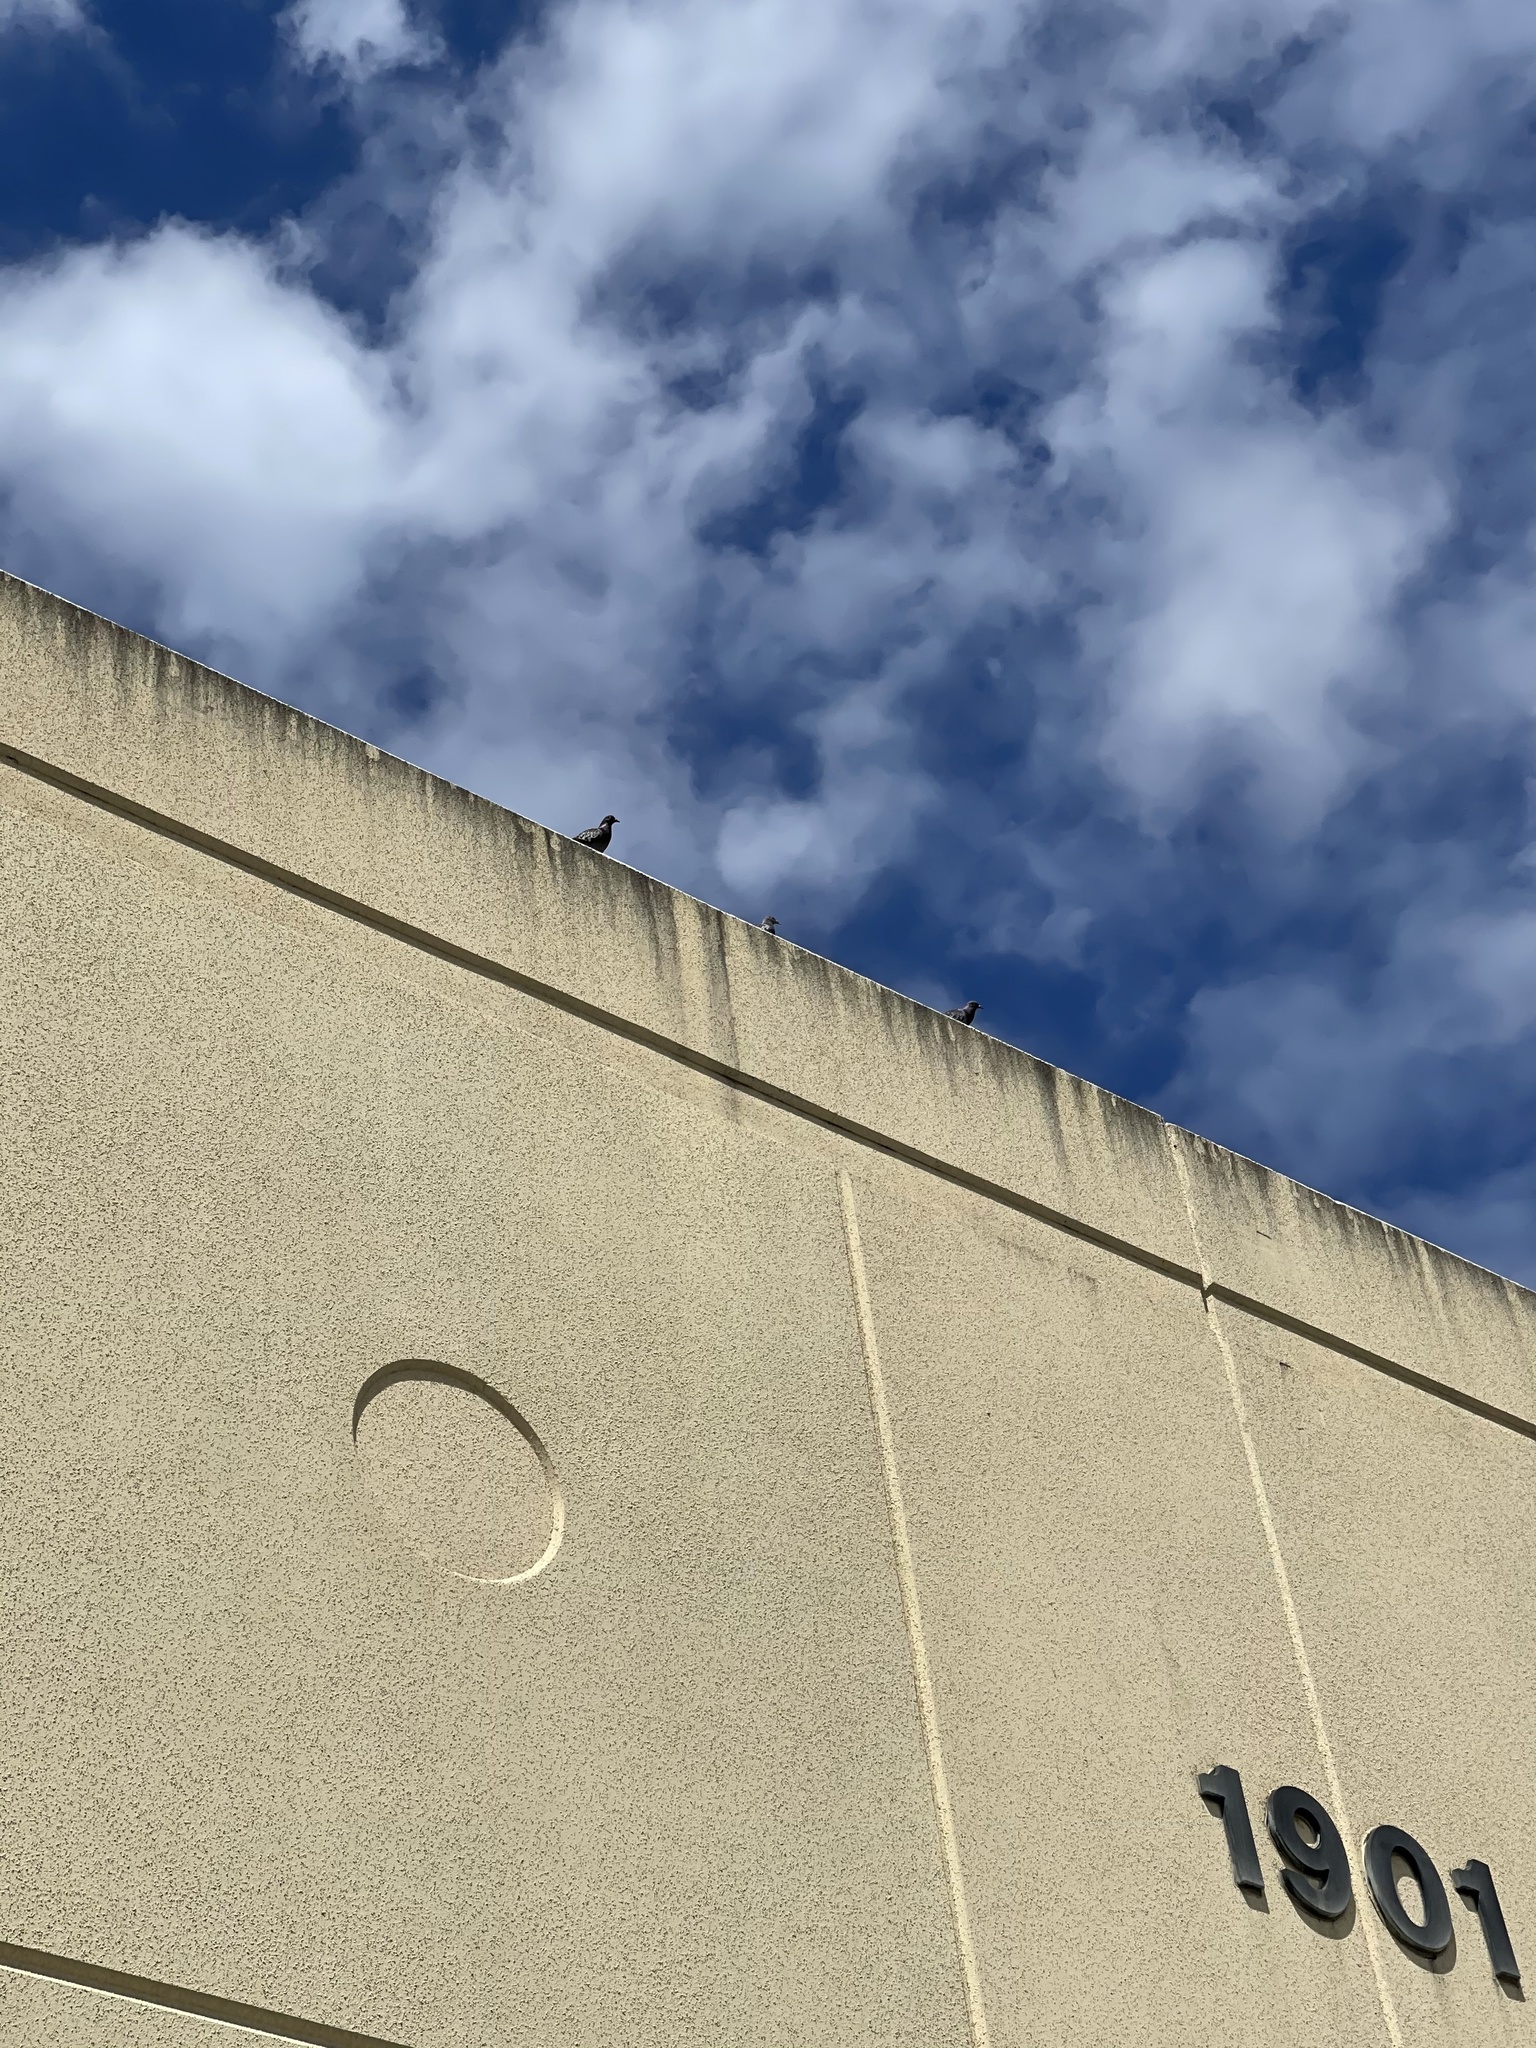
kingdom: Animalia
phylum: Chordata
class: Aves
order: Columbiformes
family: Columbidae
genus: Columba
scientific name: Columba livia
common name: Rock pigeon
